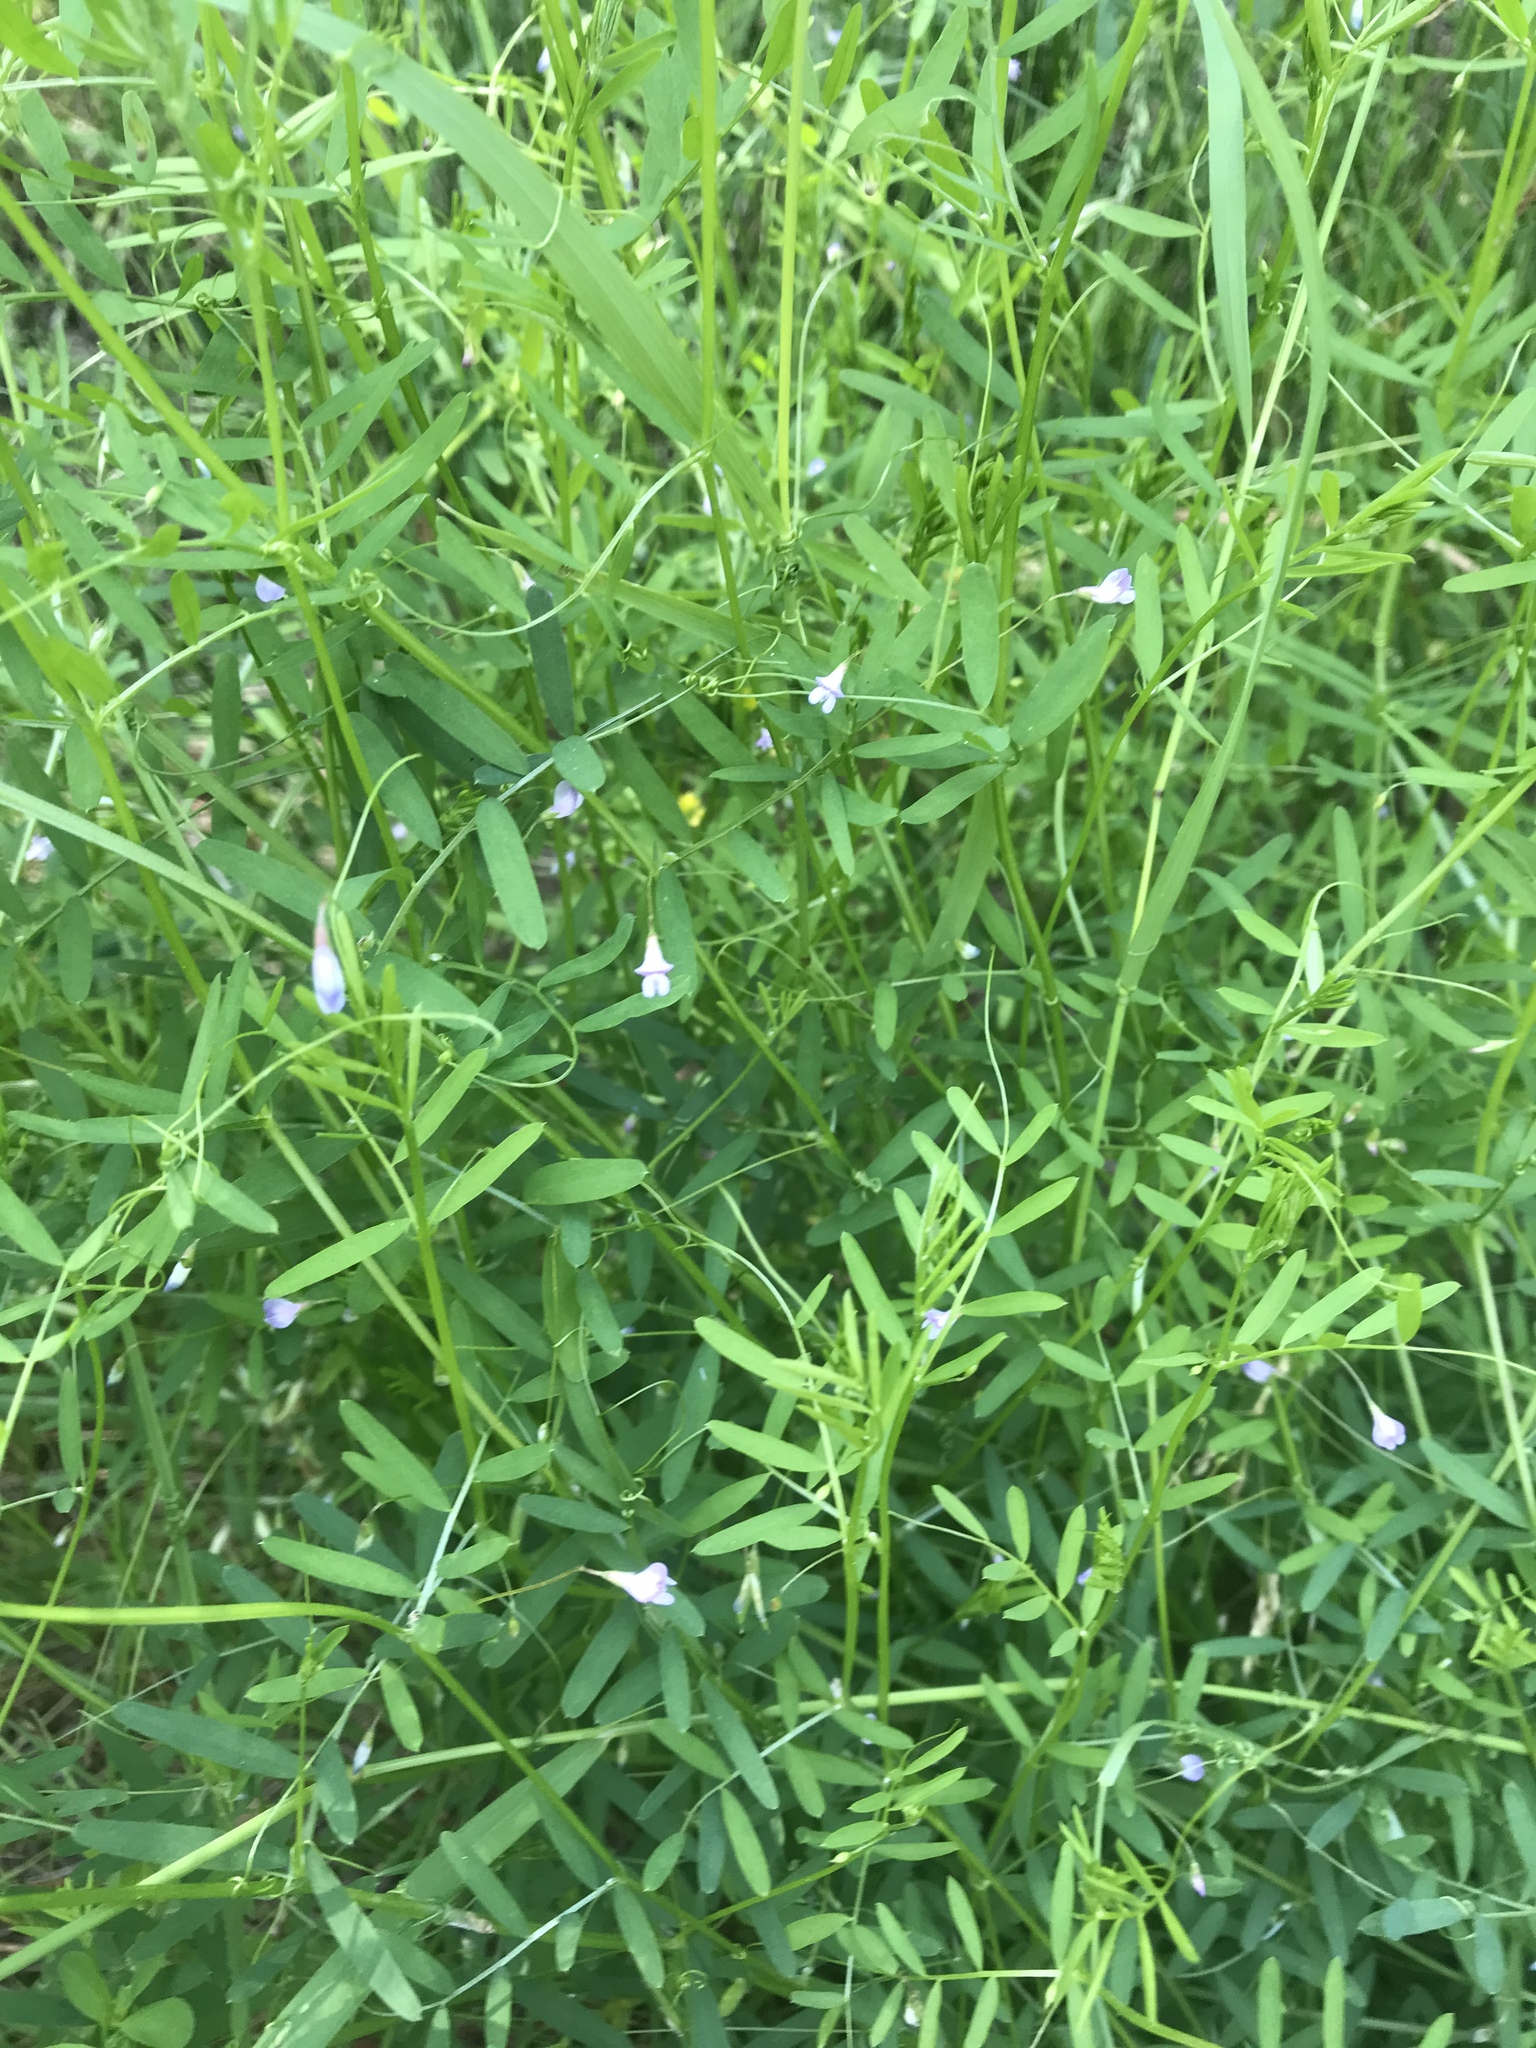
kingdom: Plantae
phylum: Tracheophyta
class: Magnoliopsida
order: Fabales
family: Fabaceae
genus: Vicia
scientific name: Vicia tetrasperma
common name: Smooth tare
